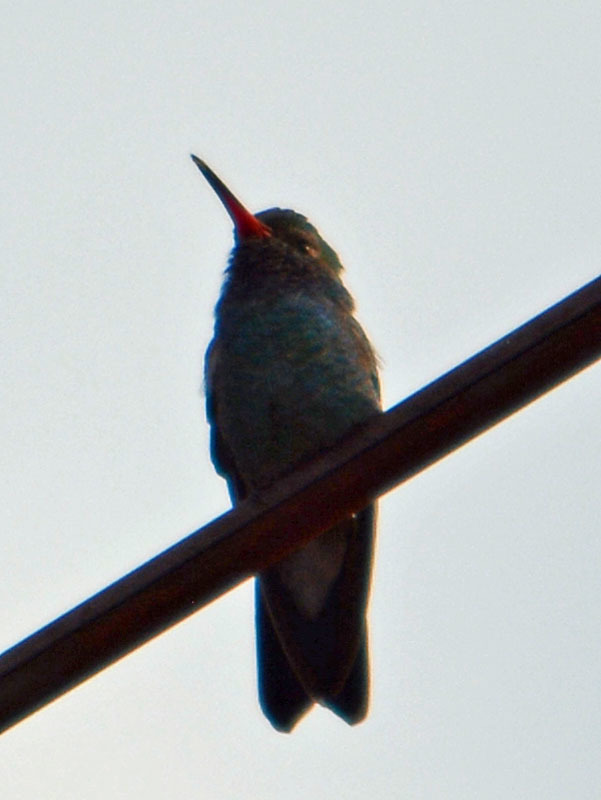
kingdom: Animalia
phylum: Chordata
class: Aves
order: Apodiformes
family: Trochilidae
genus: Cynanthus
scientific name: Cynanthus latirostris
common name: Broad-billed hummingbird
